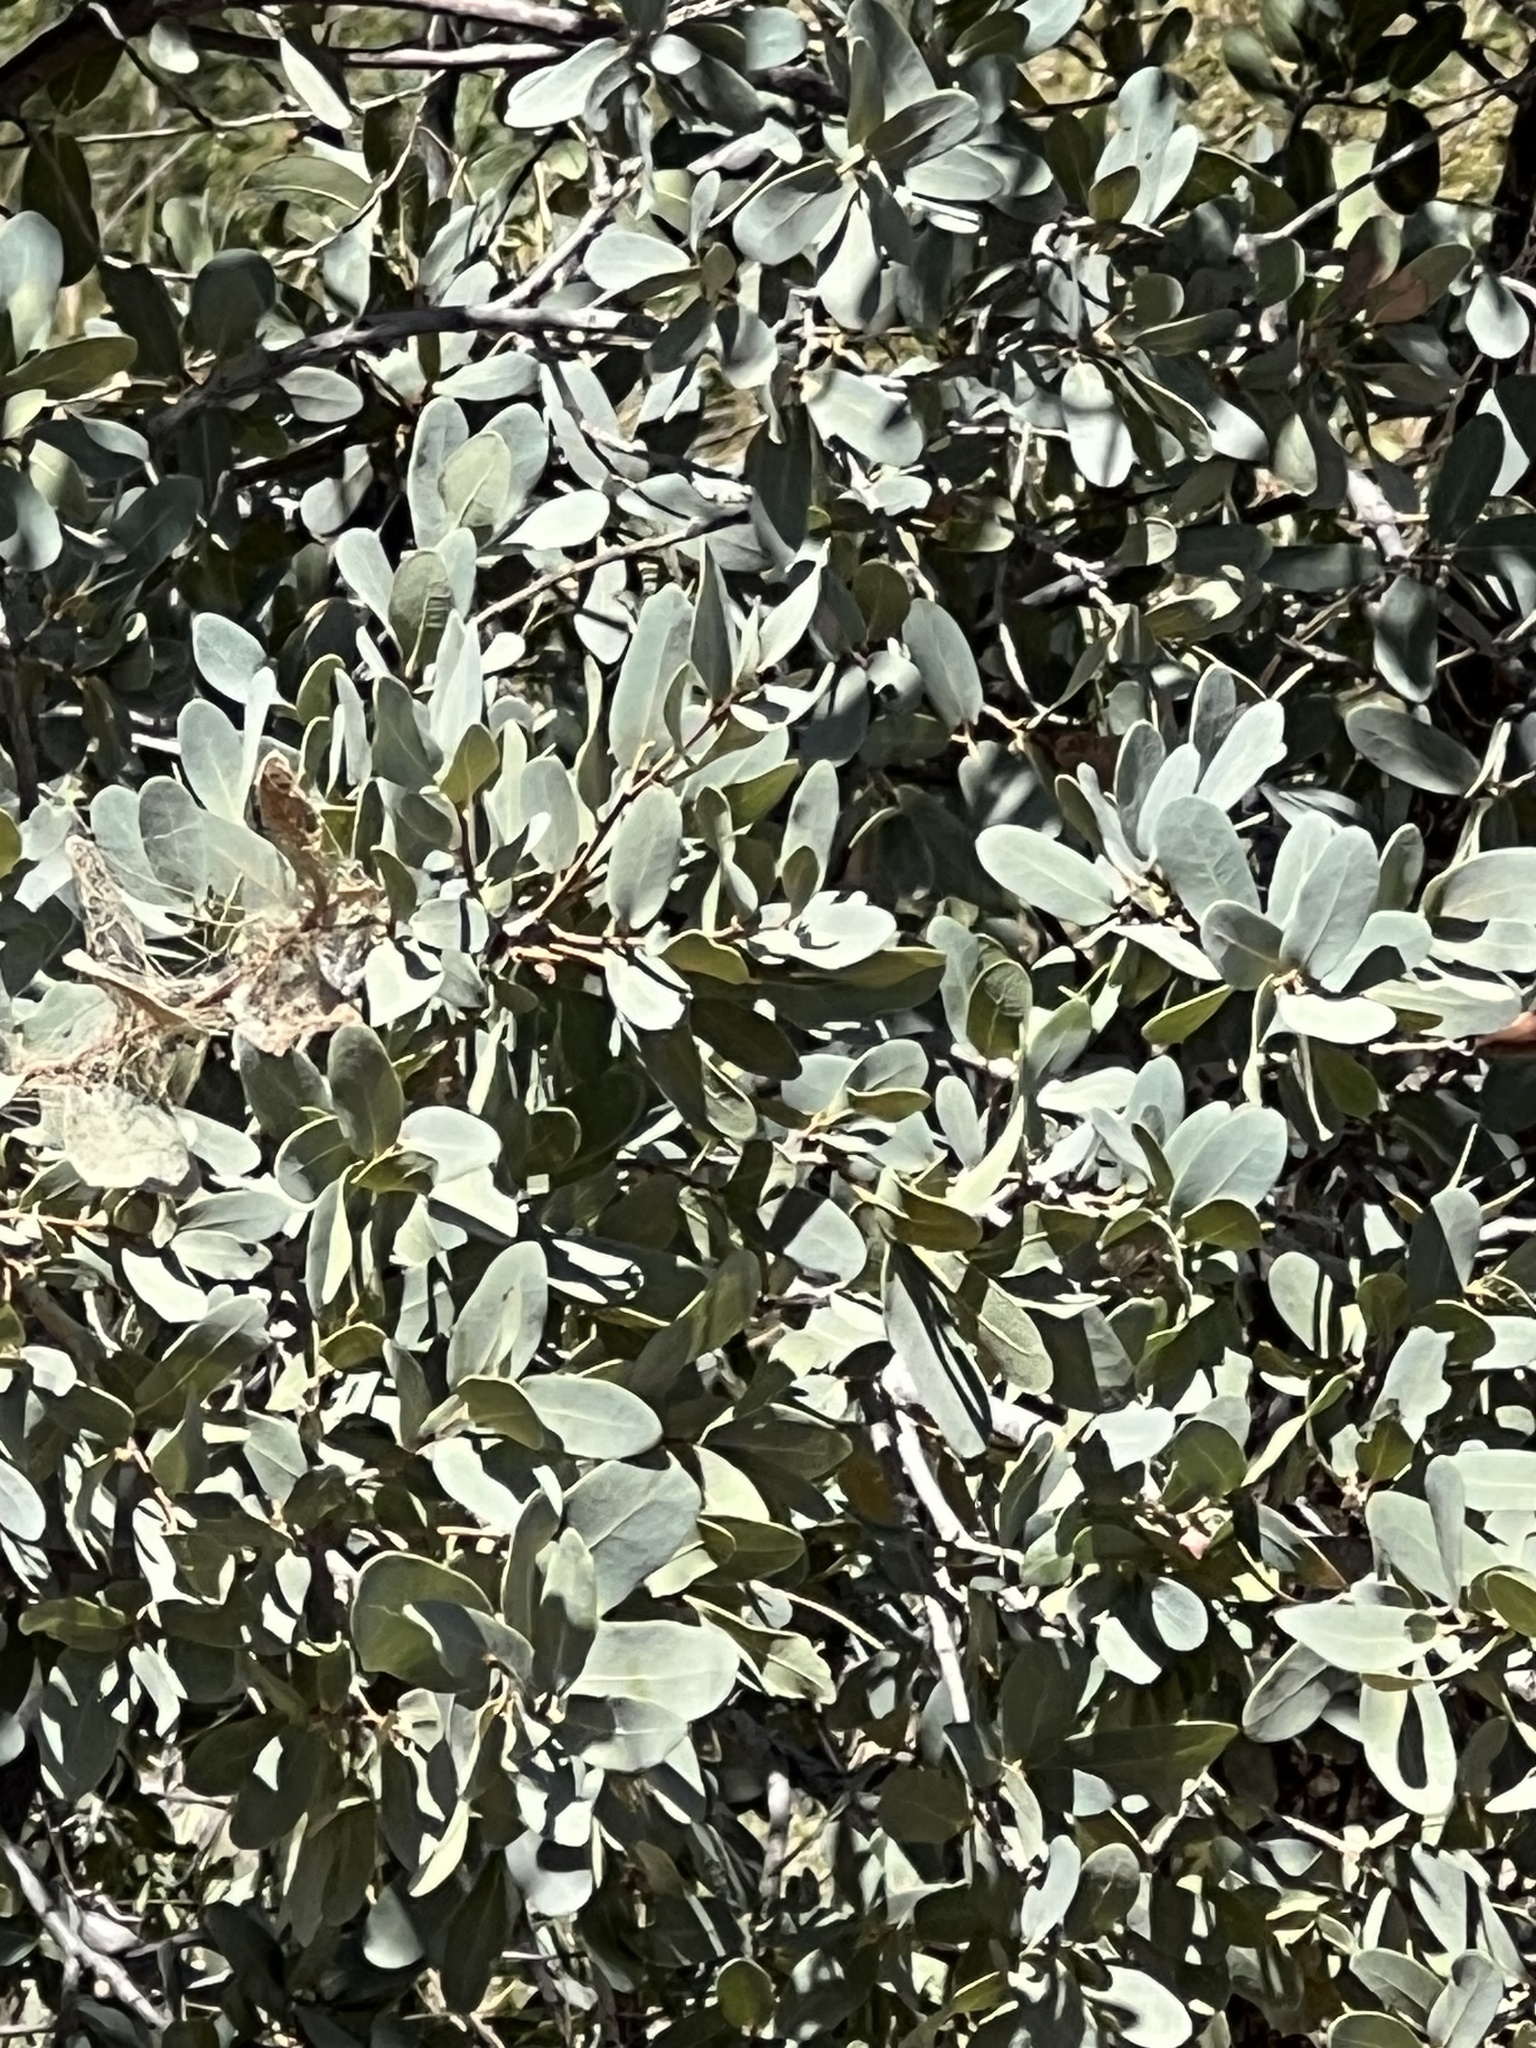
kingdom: Plantae
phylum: Tracheophyta
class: Magnoliopsida
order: Fagales
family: Fagaceae
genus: Quercus
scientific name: Quercus oblongifolia
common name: Mexican blue oak
